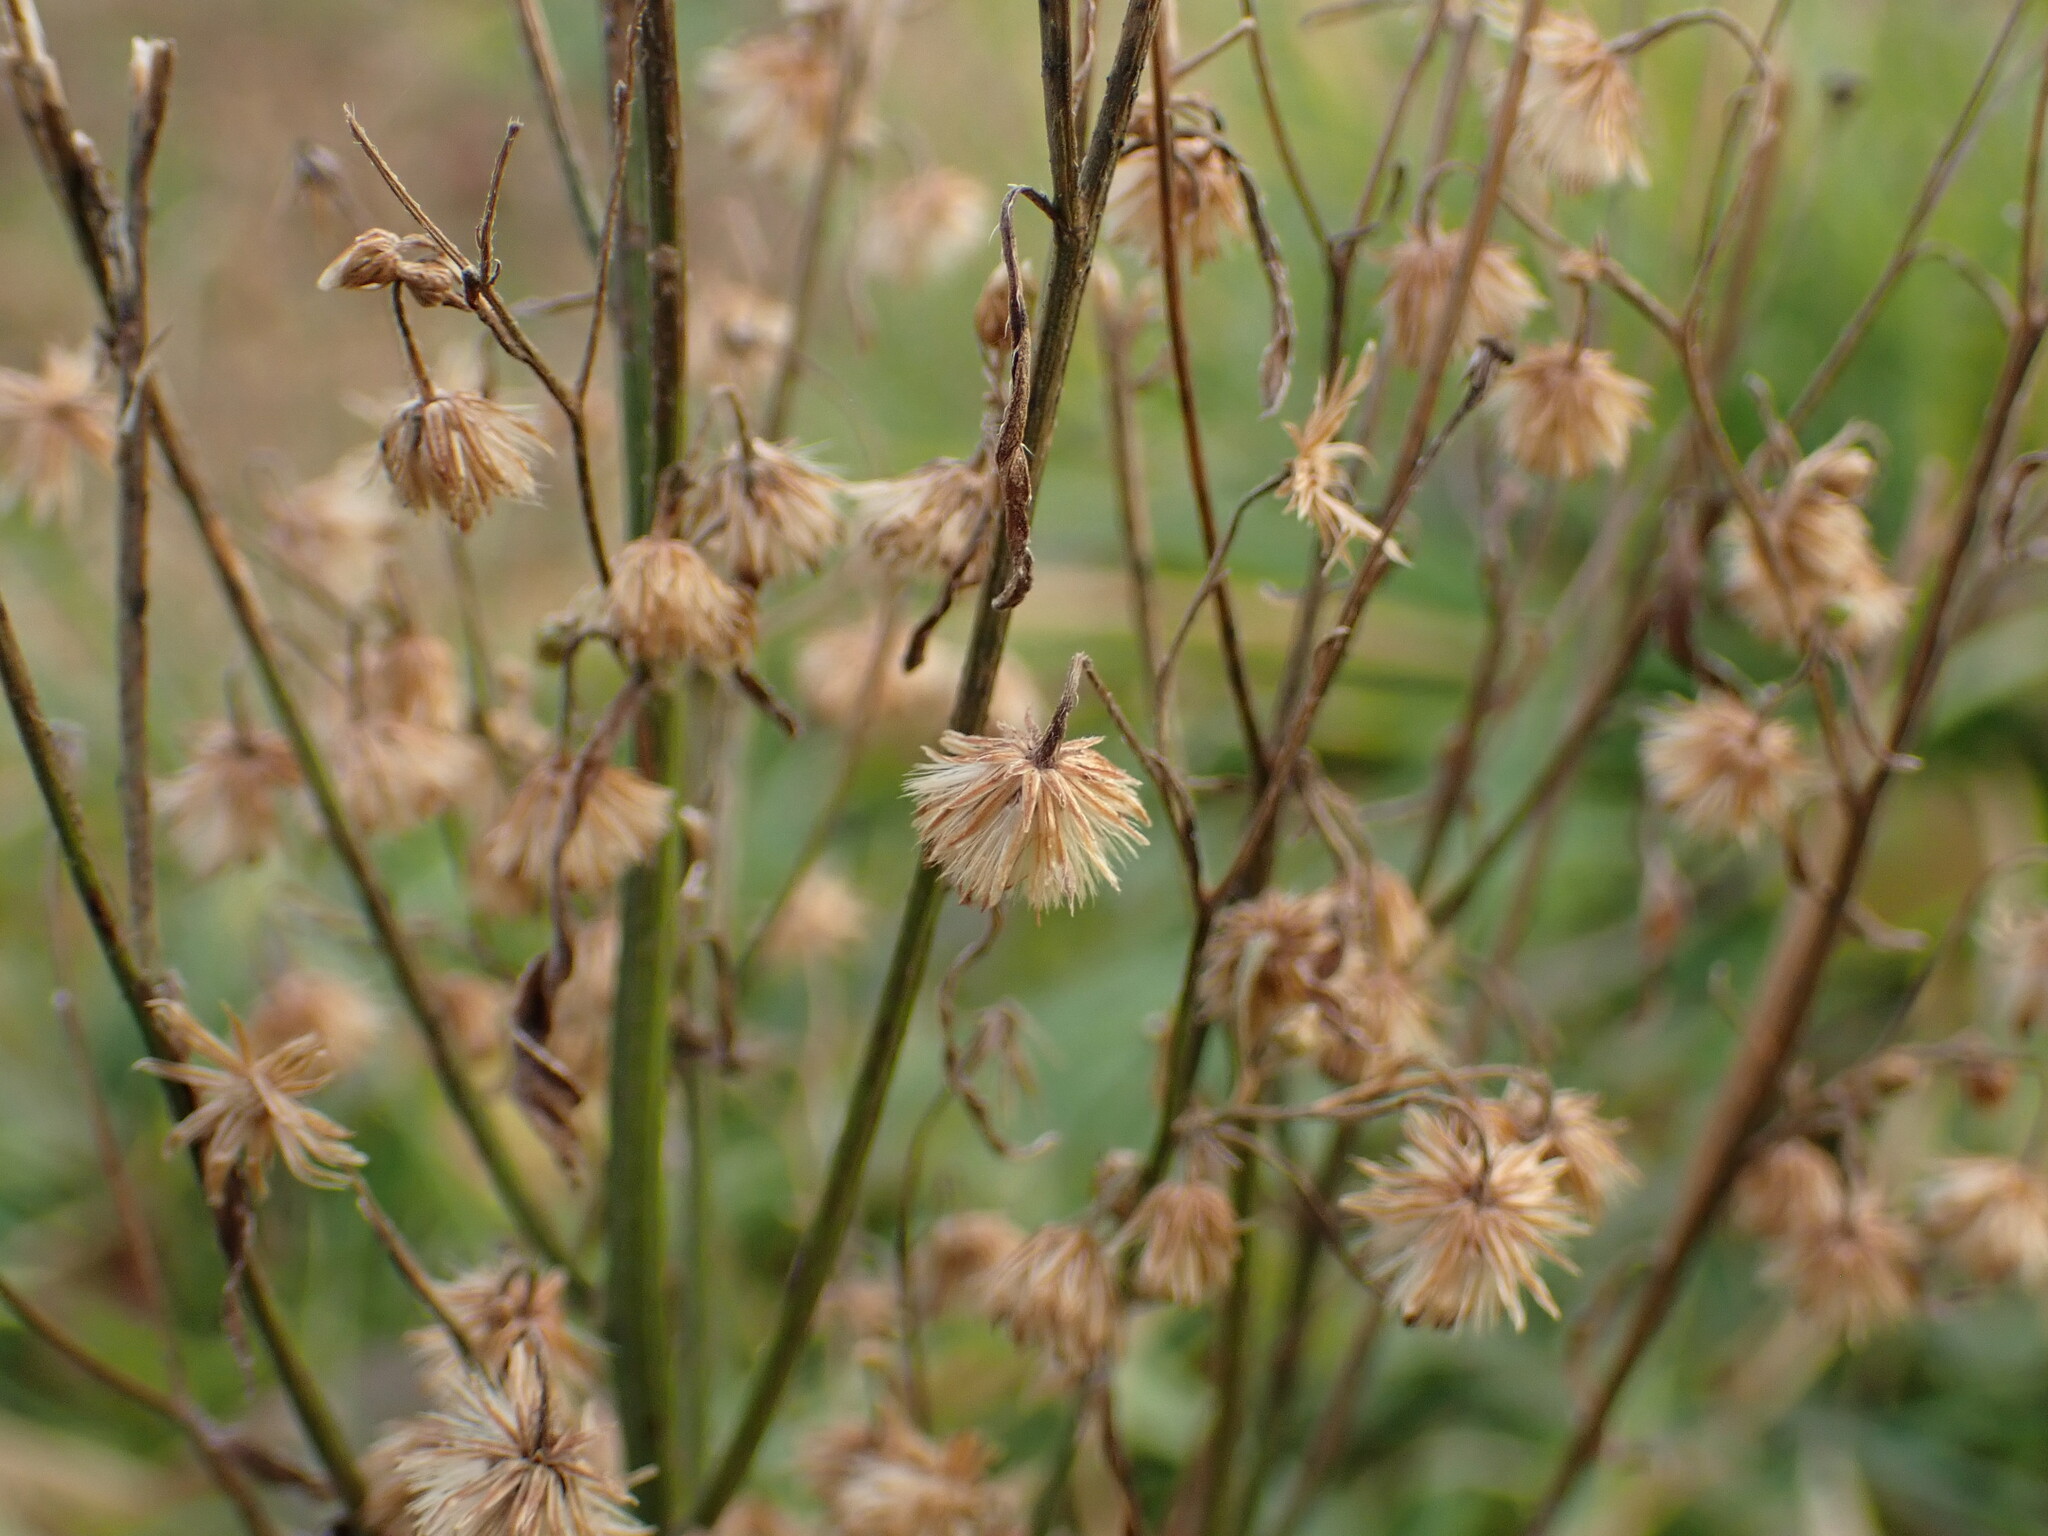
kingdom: Plantae
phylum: Tracheophyta
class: Magnoliopsida
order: Asterales
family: Asteraceae
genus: Erigeron
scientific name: Erigeron canadensis
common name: Canadian fleabane
